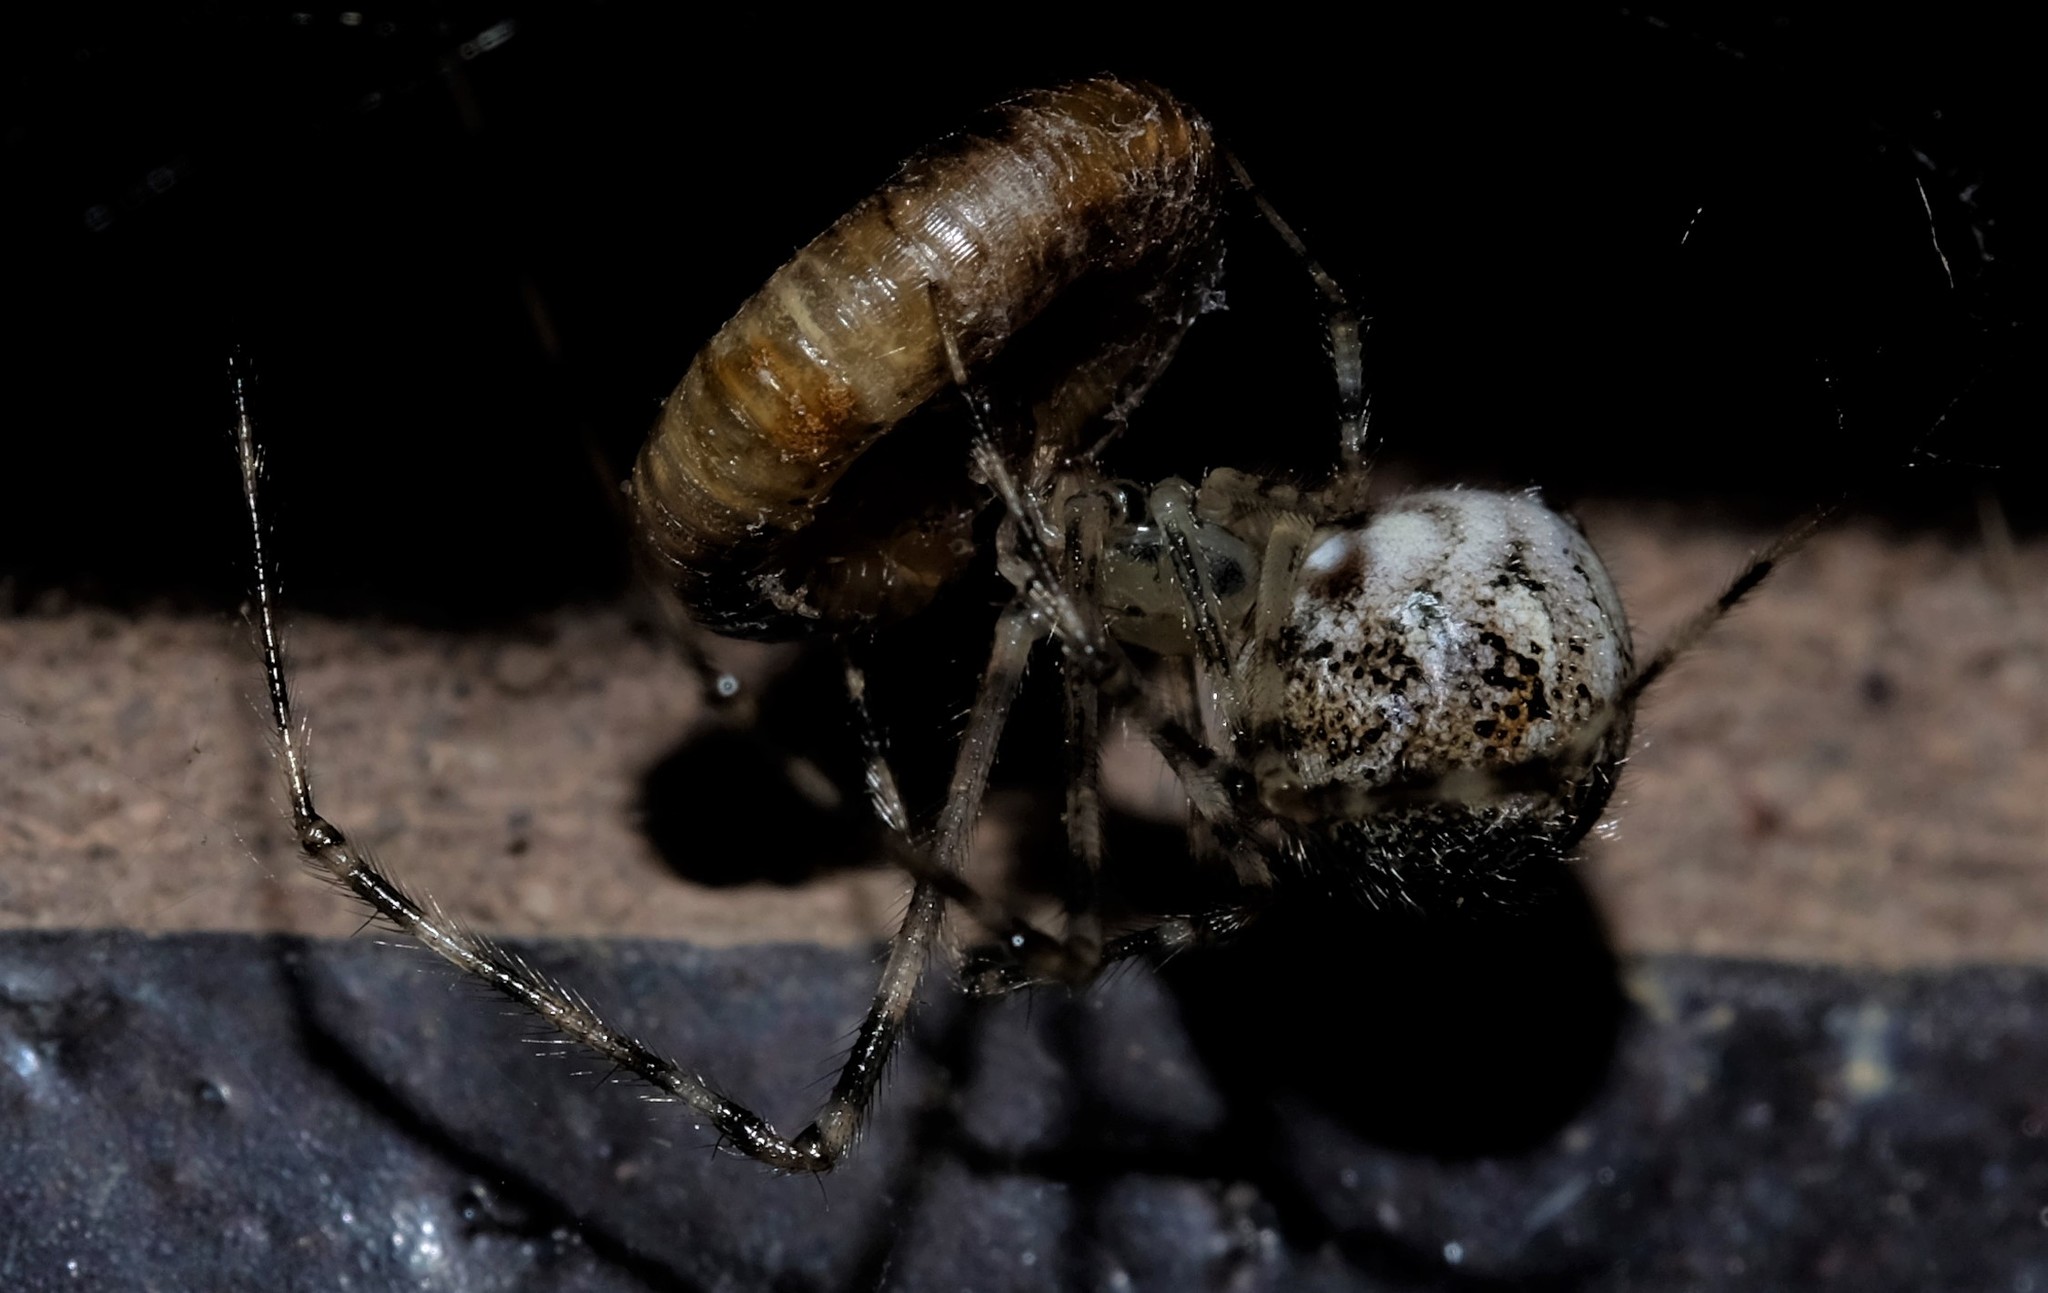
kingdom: Animalia
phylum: Arthropoda
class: Arachnida
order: Araneae
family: Theridiidae
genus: Cryptachaea
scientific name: Cryptachaea gigantipes
